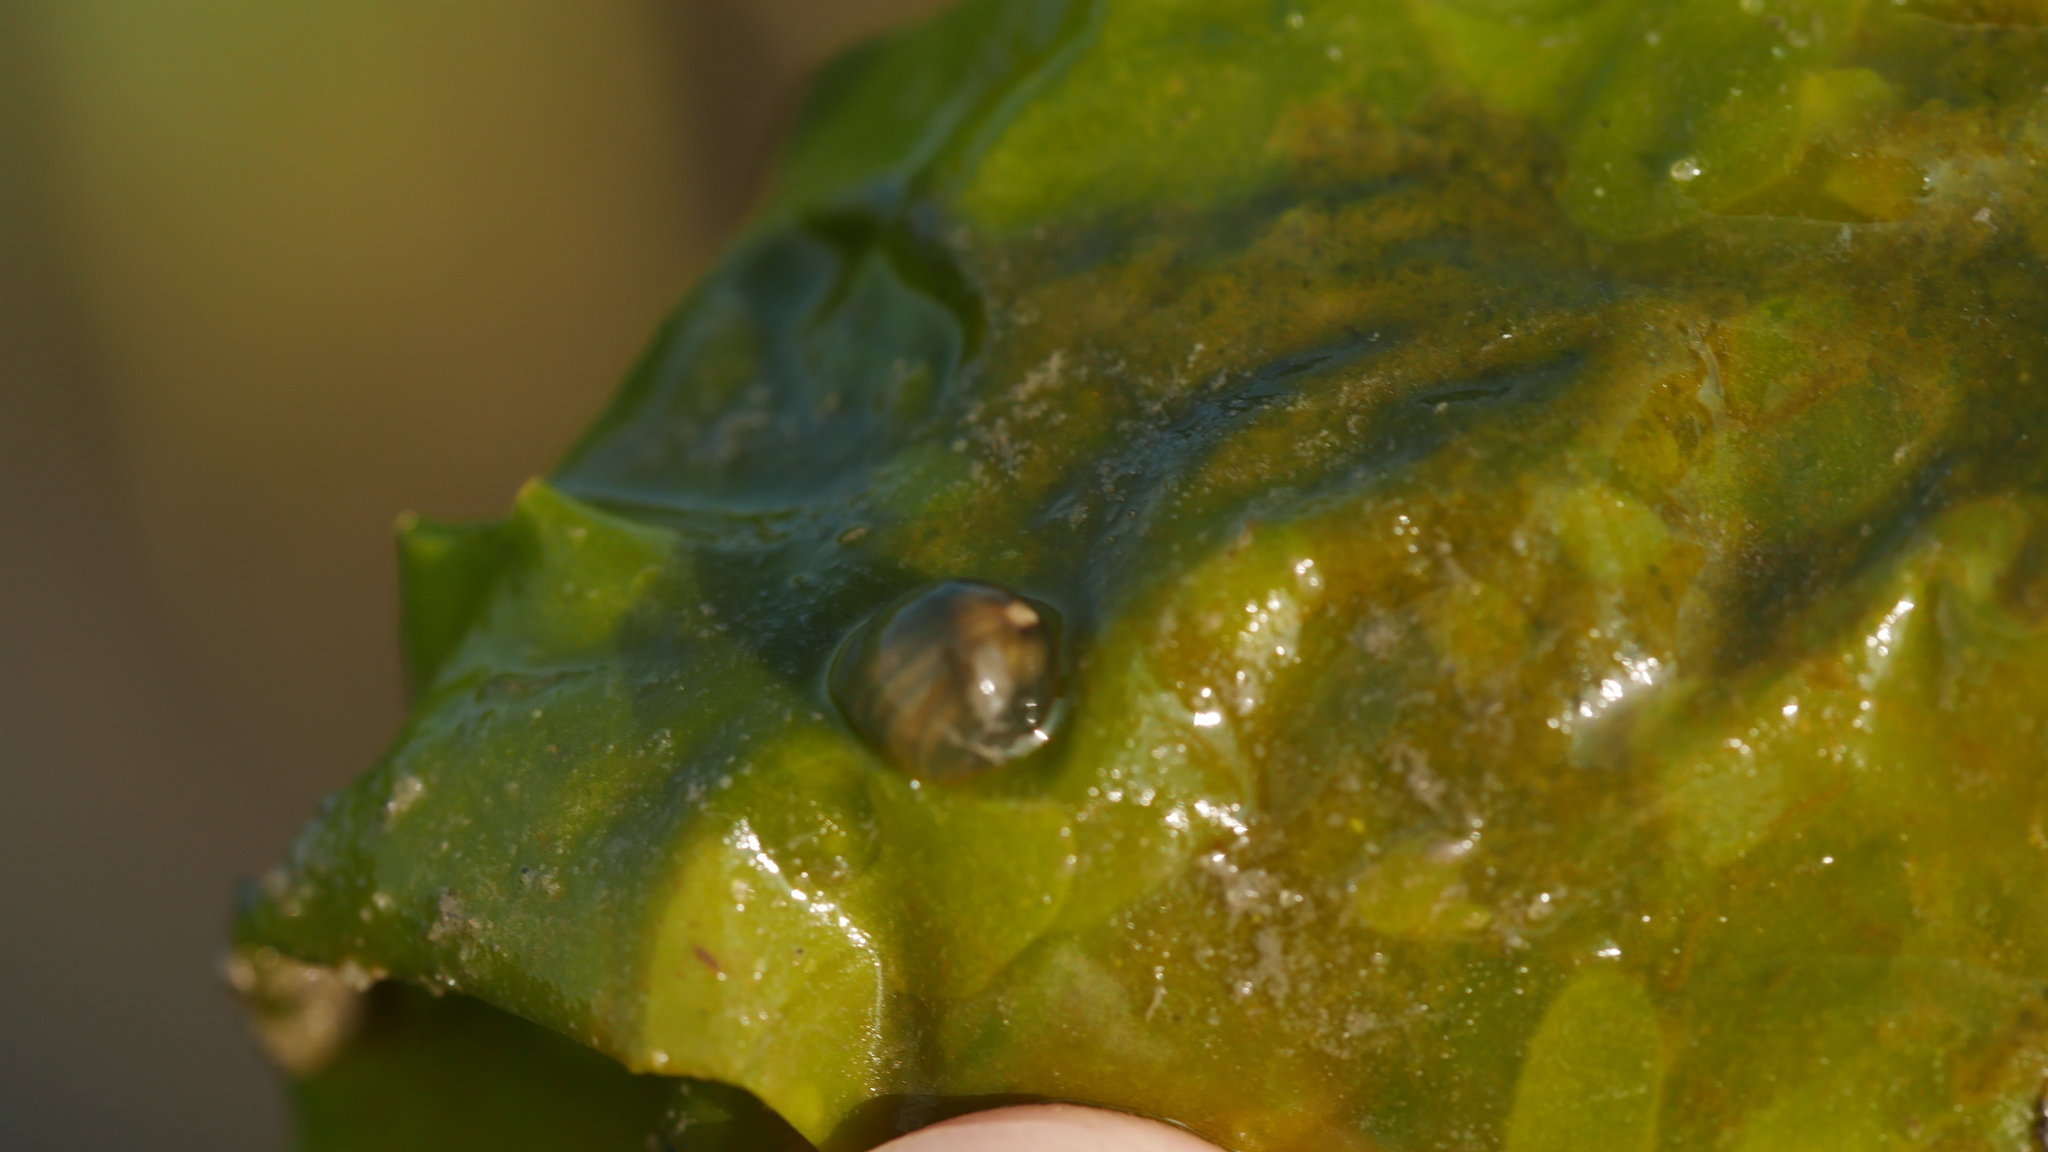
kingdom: Animalia
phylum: Cnidaria
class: Anthozoa
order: Actiniaria
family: Diadumenidae
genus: Diadumene
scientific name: Diadumene lineata
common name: Orange-striped anemone
